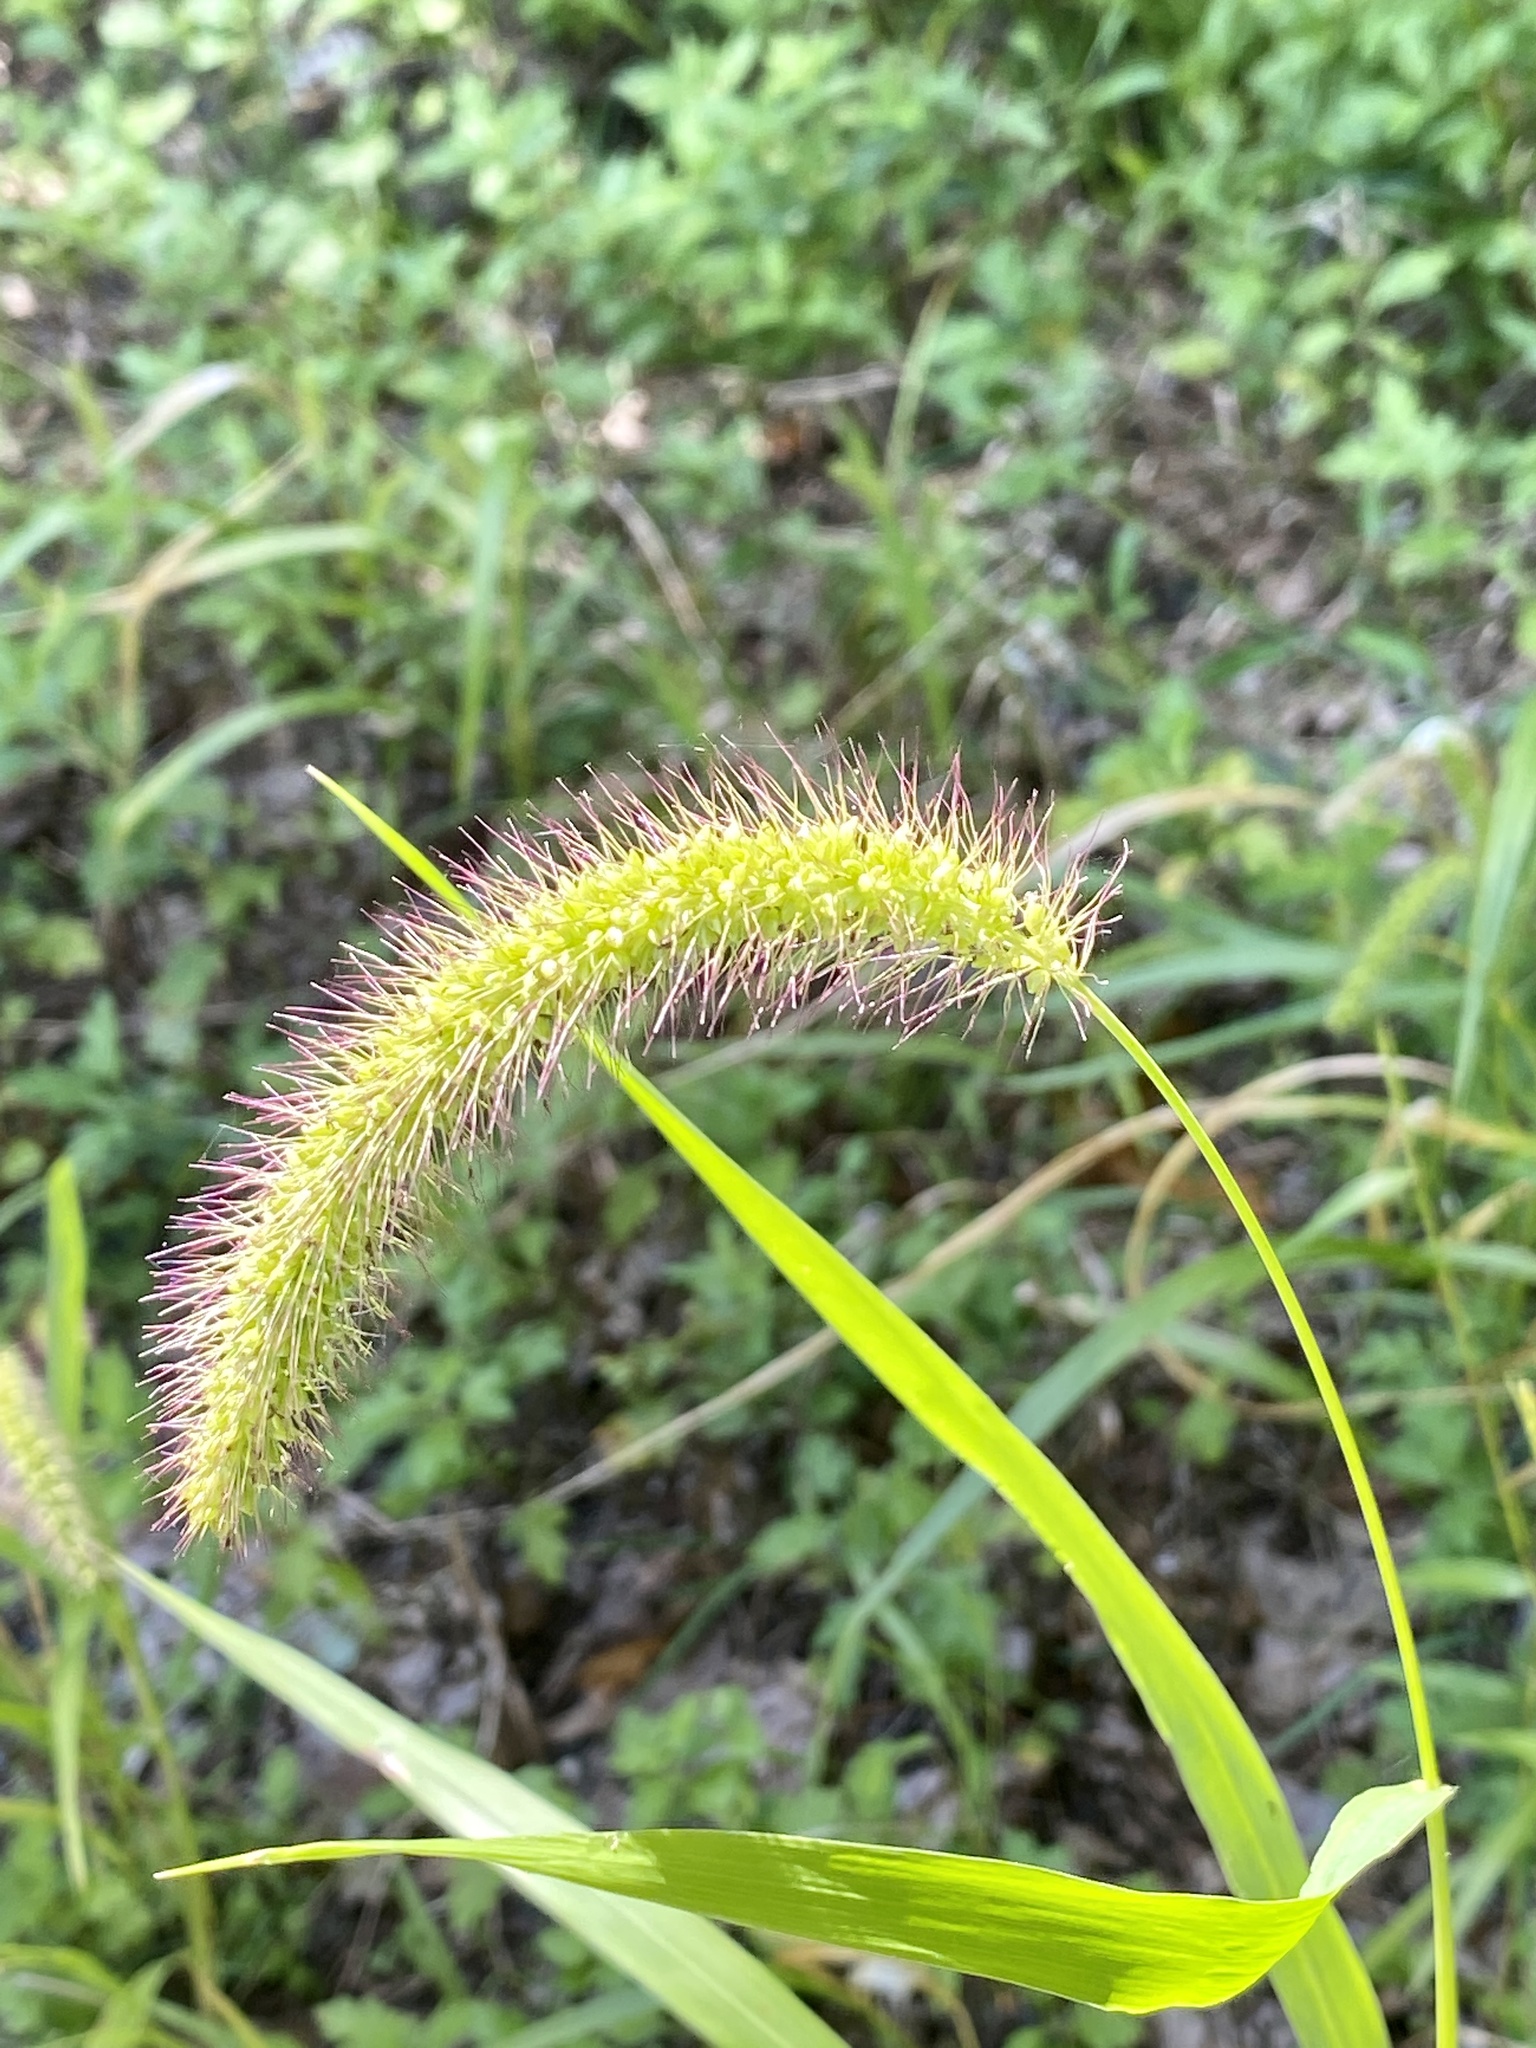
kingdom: Plantae
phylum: Tracheophyta
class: Liliopsida
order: Poales
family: Poaceae
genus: Setaria
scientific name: Setaria faberi
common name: Nodding bristle-grass
